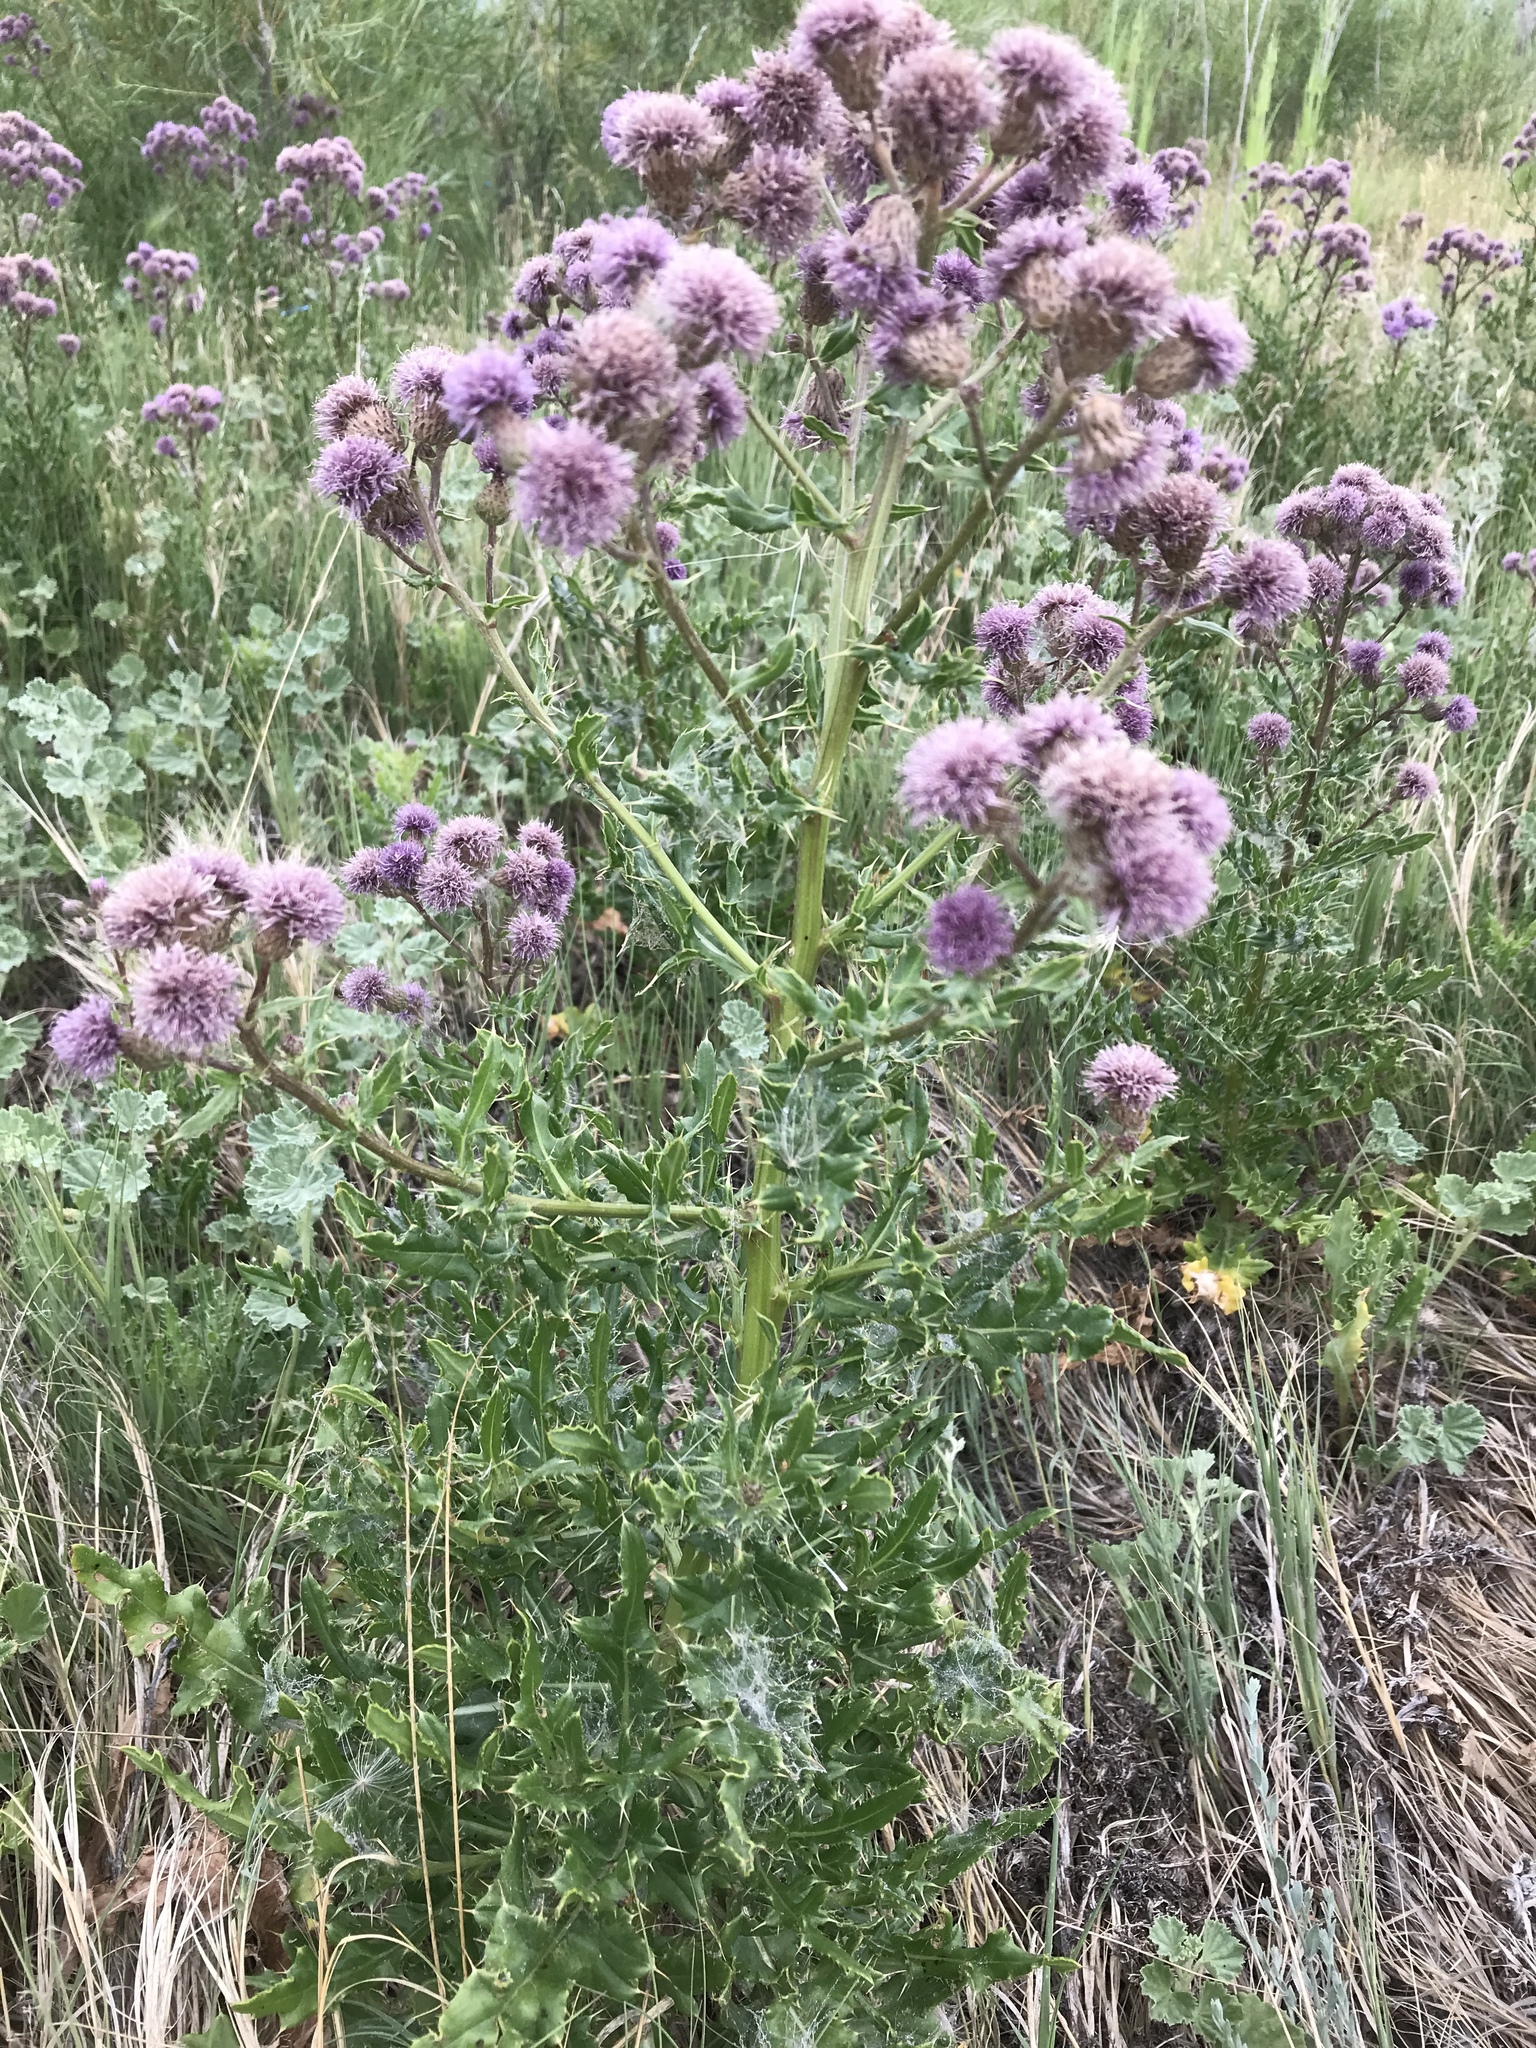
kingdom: Plantae
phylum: Tracheophyta
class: Magnoliopsida
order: Asterales
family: Asteraceae
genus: Cirsium
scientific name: Cirsium arvense
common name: Creeping thistle
